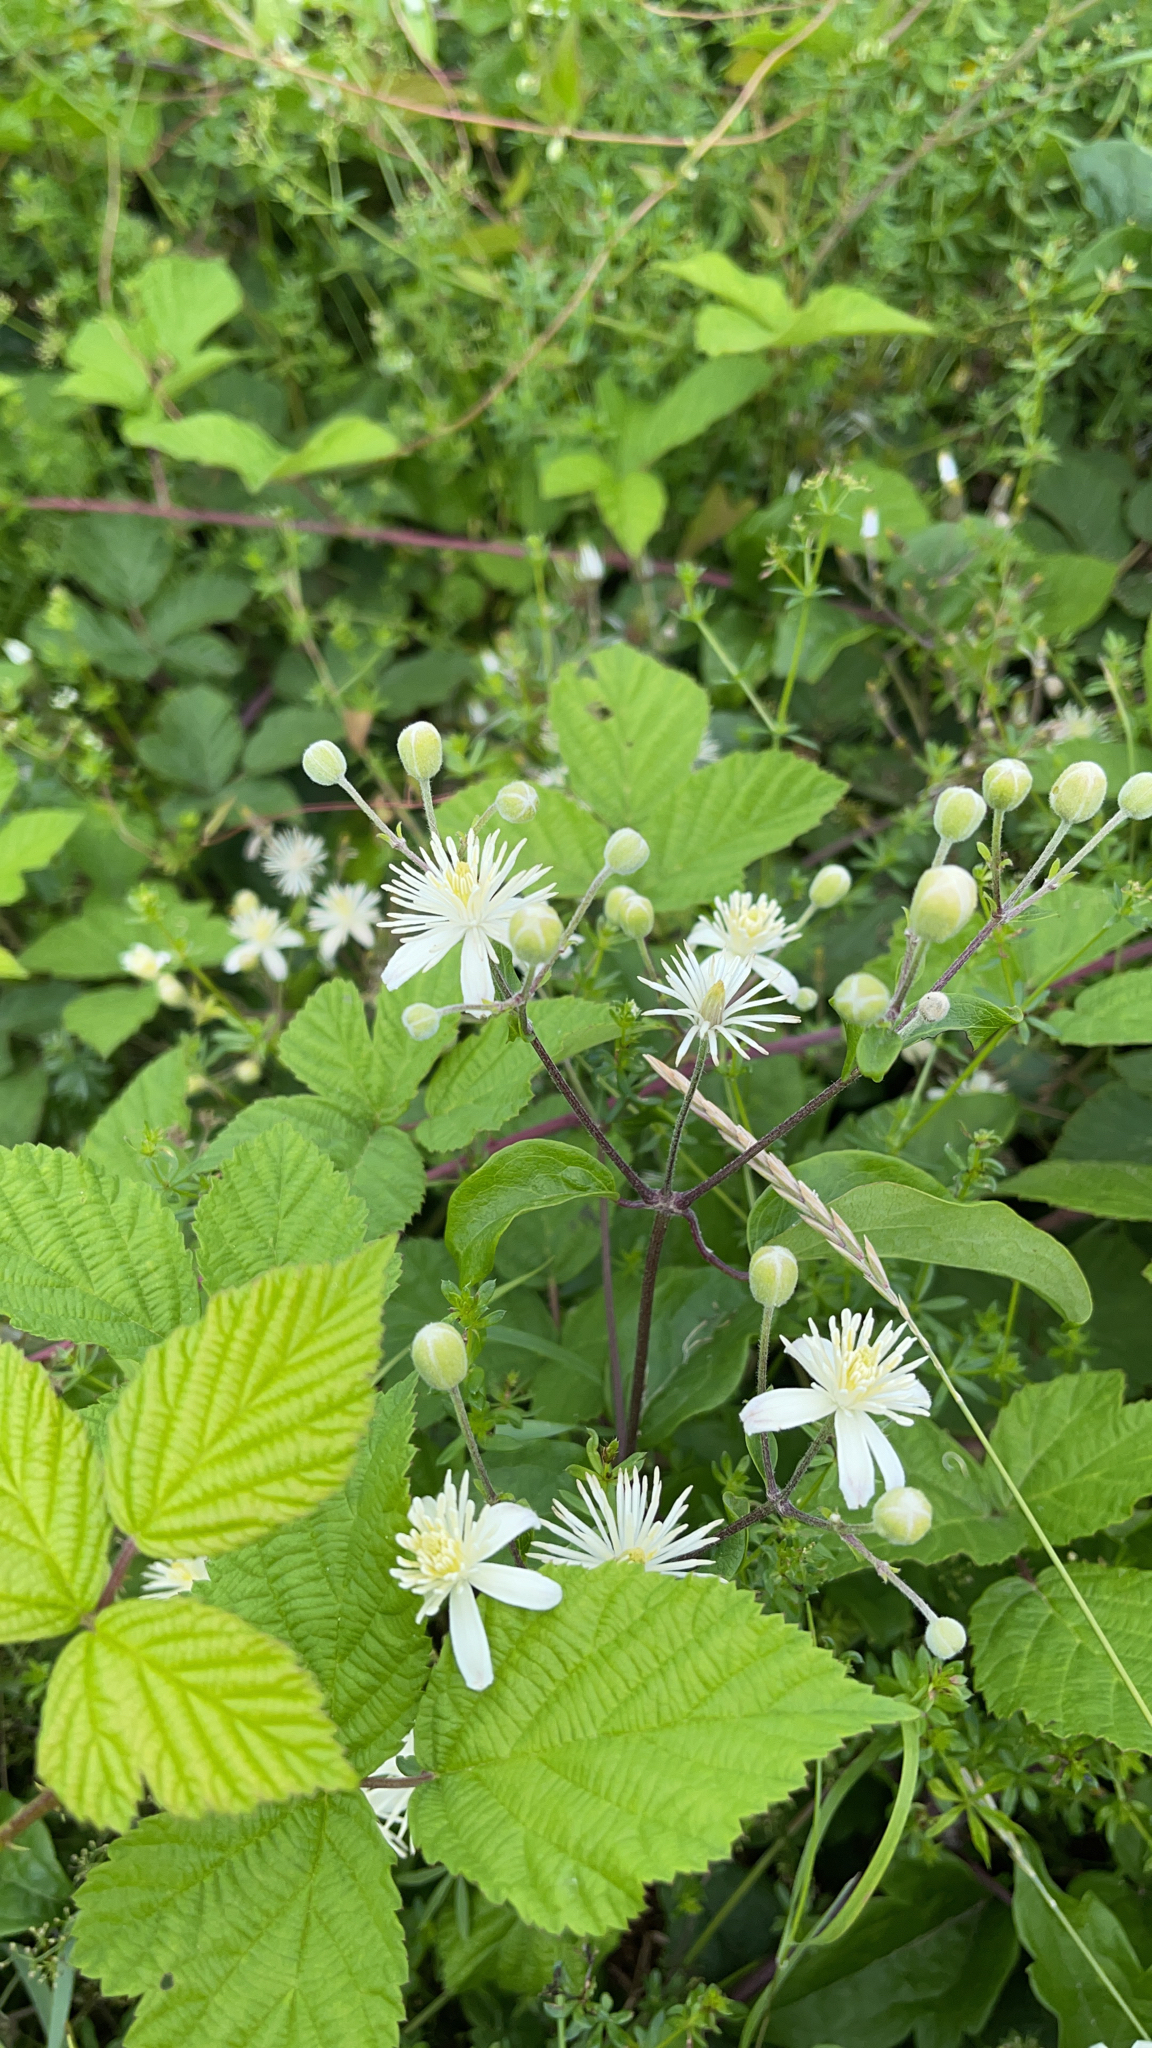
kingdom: Plantae
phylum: Tracheophyta
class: Magnoliopsida
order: Ranunculales
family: Ranunculaceae
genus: Clematis
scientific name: Clematis vitalba
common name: Evergreen clematis
